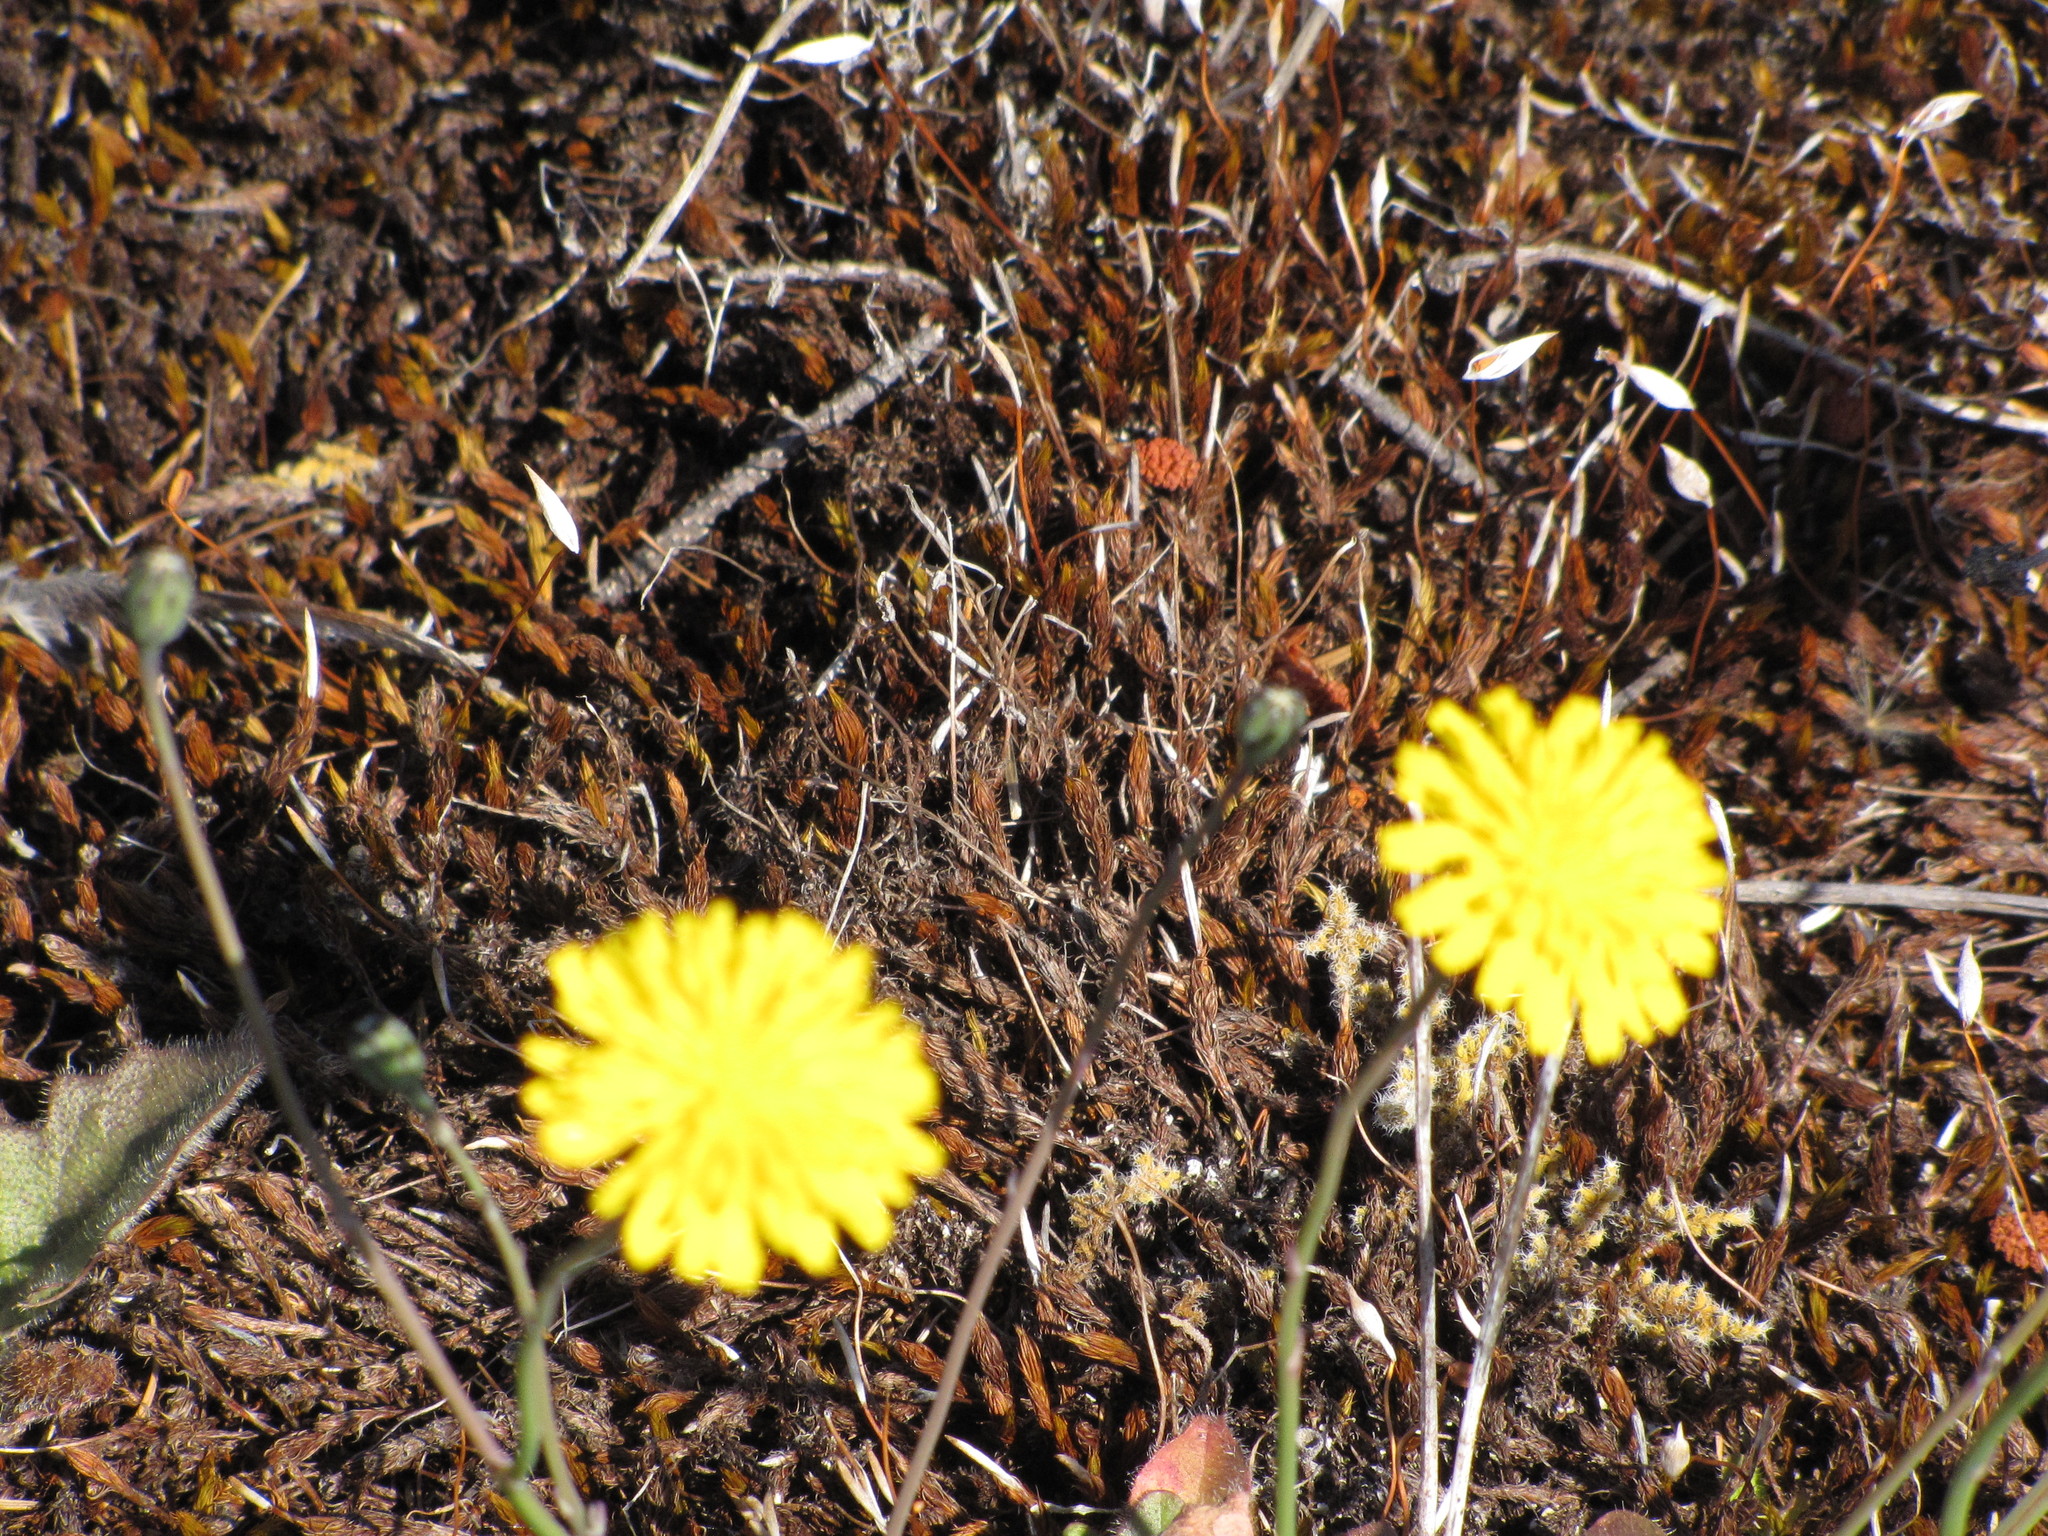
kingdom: Plantae
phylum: Tracheophyta
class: Magnoliopsida
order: Asterales
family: Asteraceae
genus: Taraxacum
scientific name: Taraxacum officinale
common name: Common dandelion
